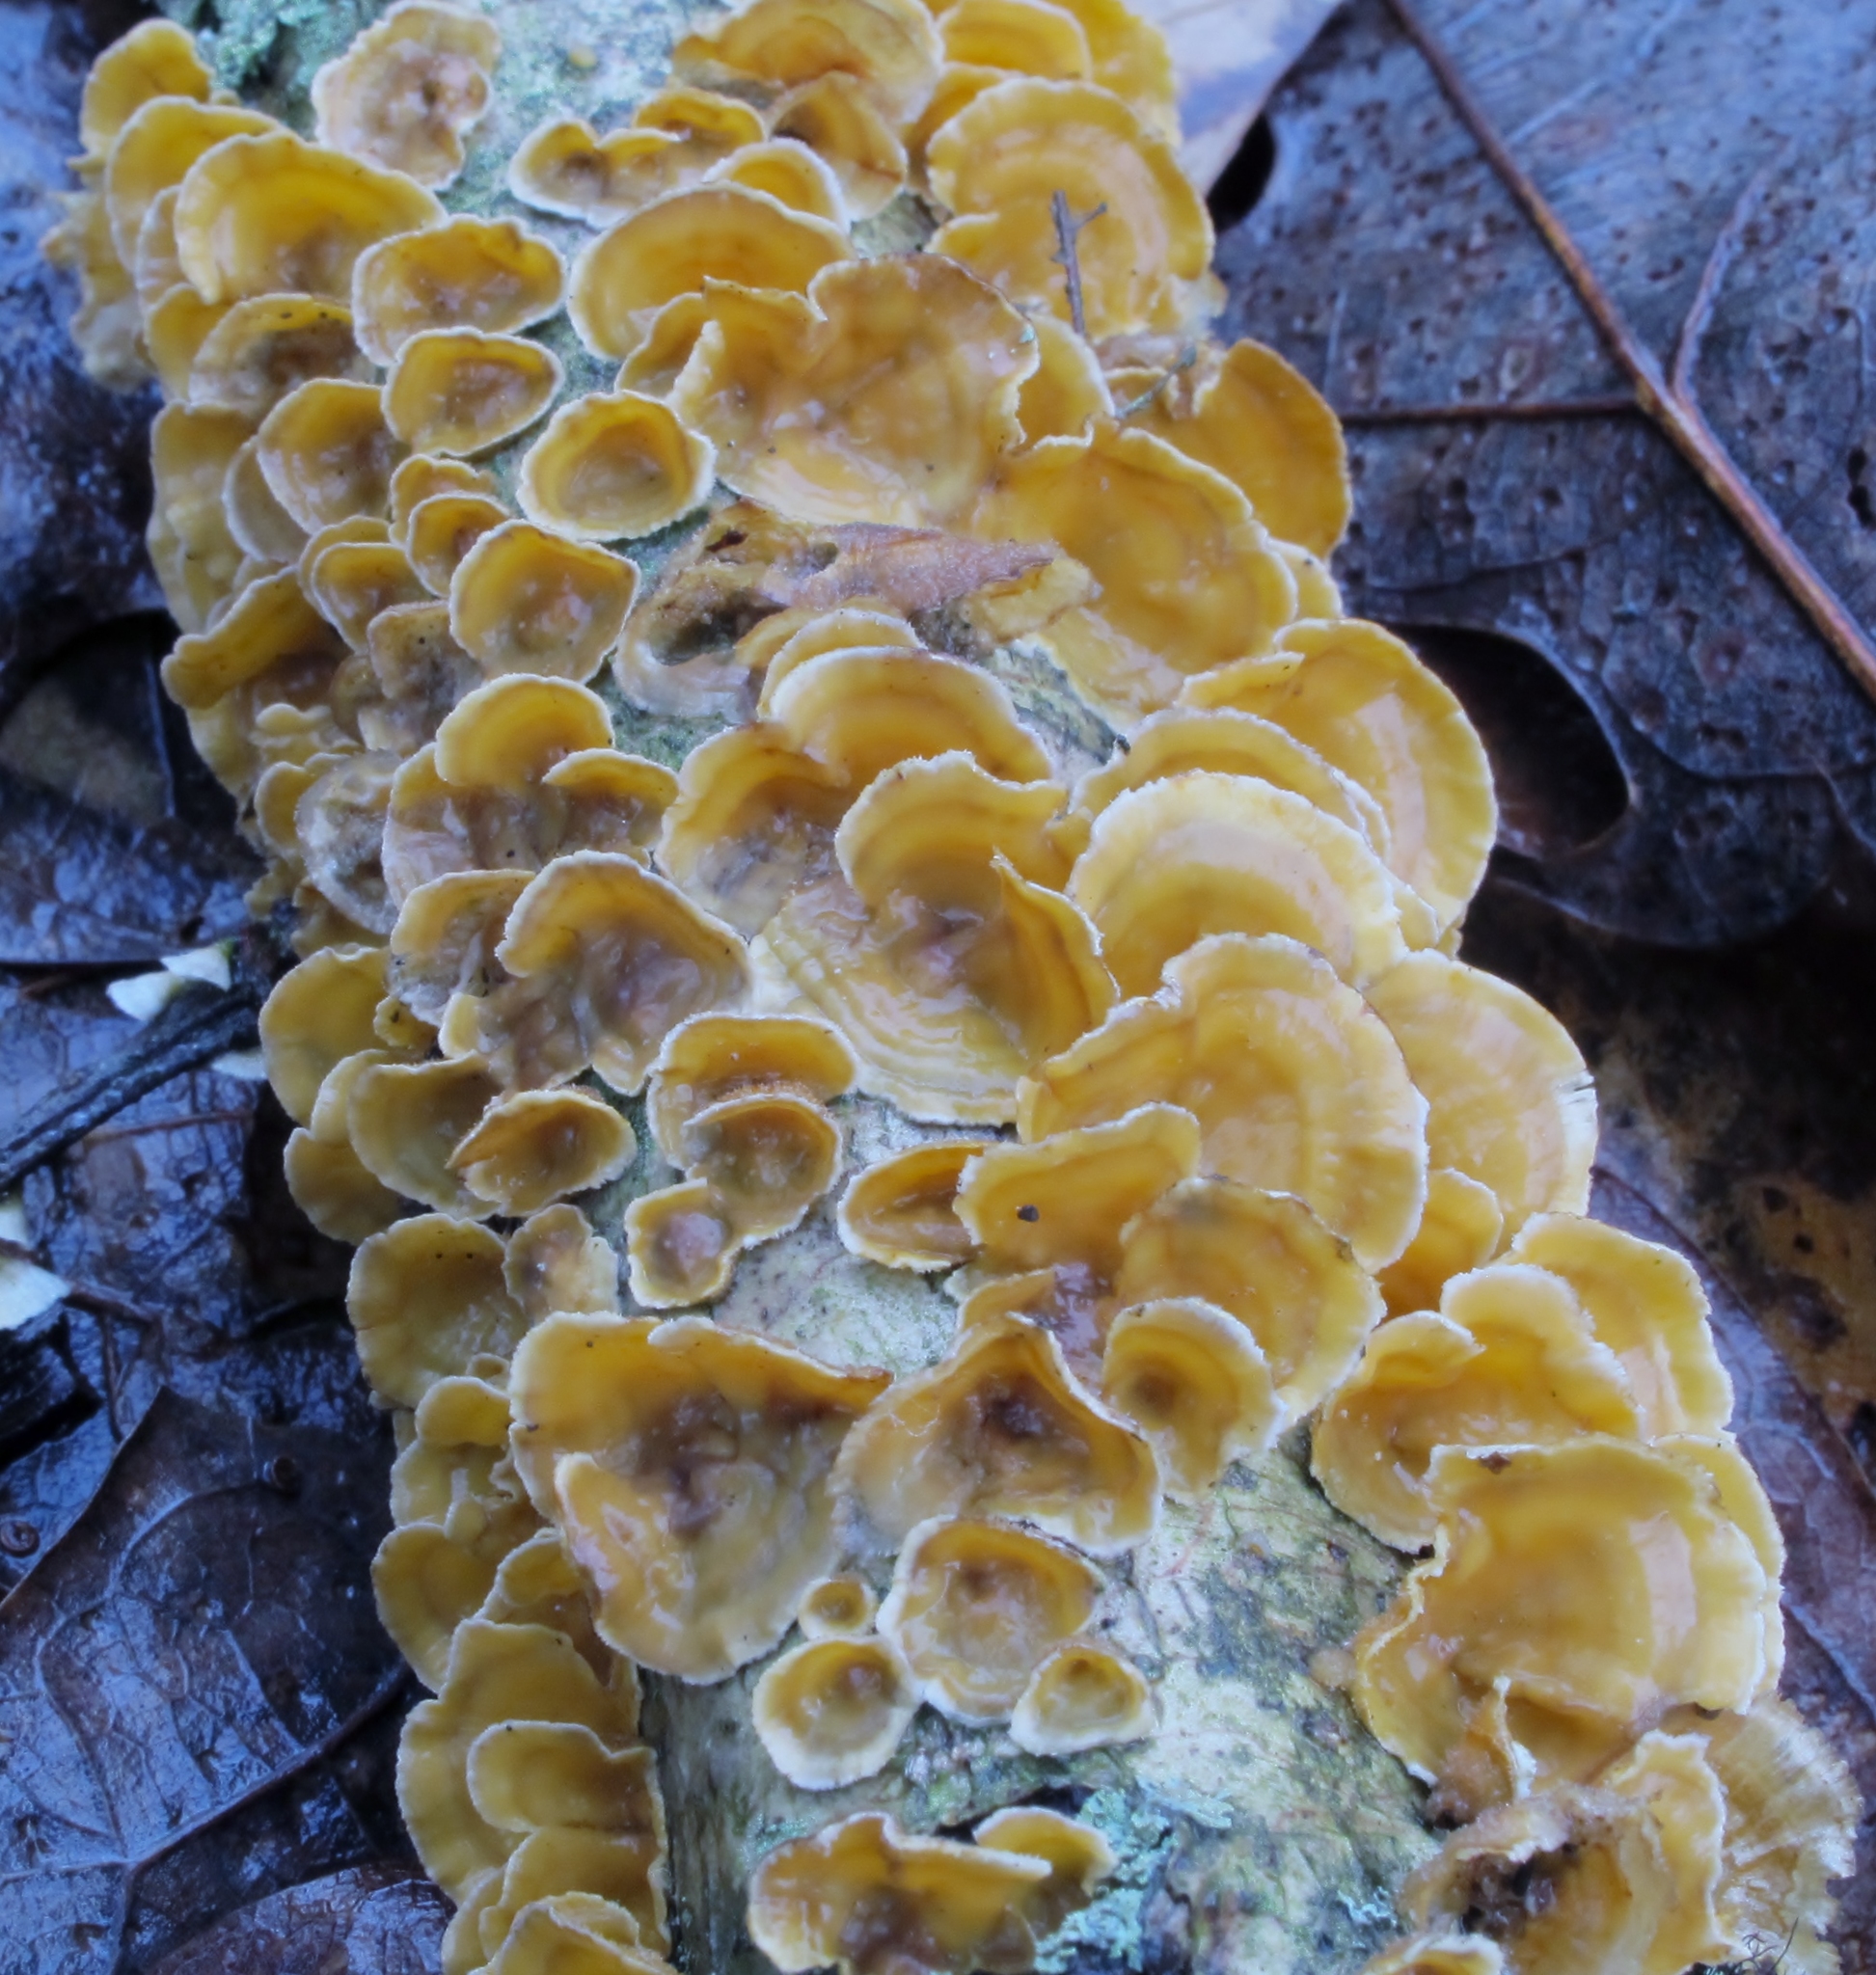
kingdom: Fungi
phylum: Basidiomycota
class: Agaricomycetes
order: Russulales
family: Stereaceae
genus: Stereum
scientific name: Stereum complicatum
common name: Crowded parchment
